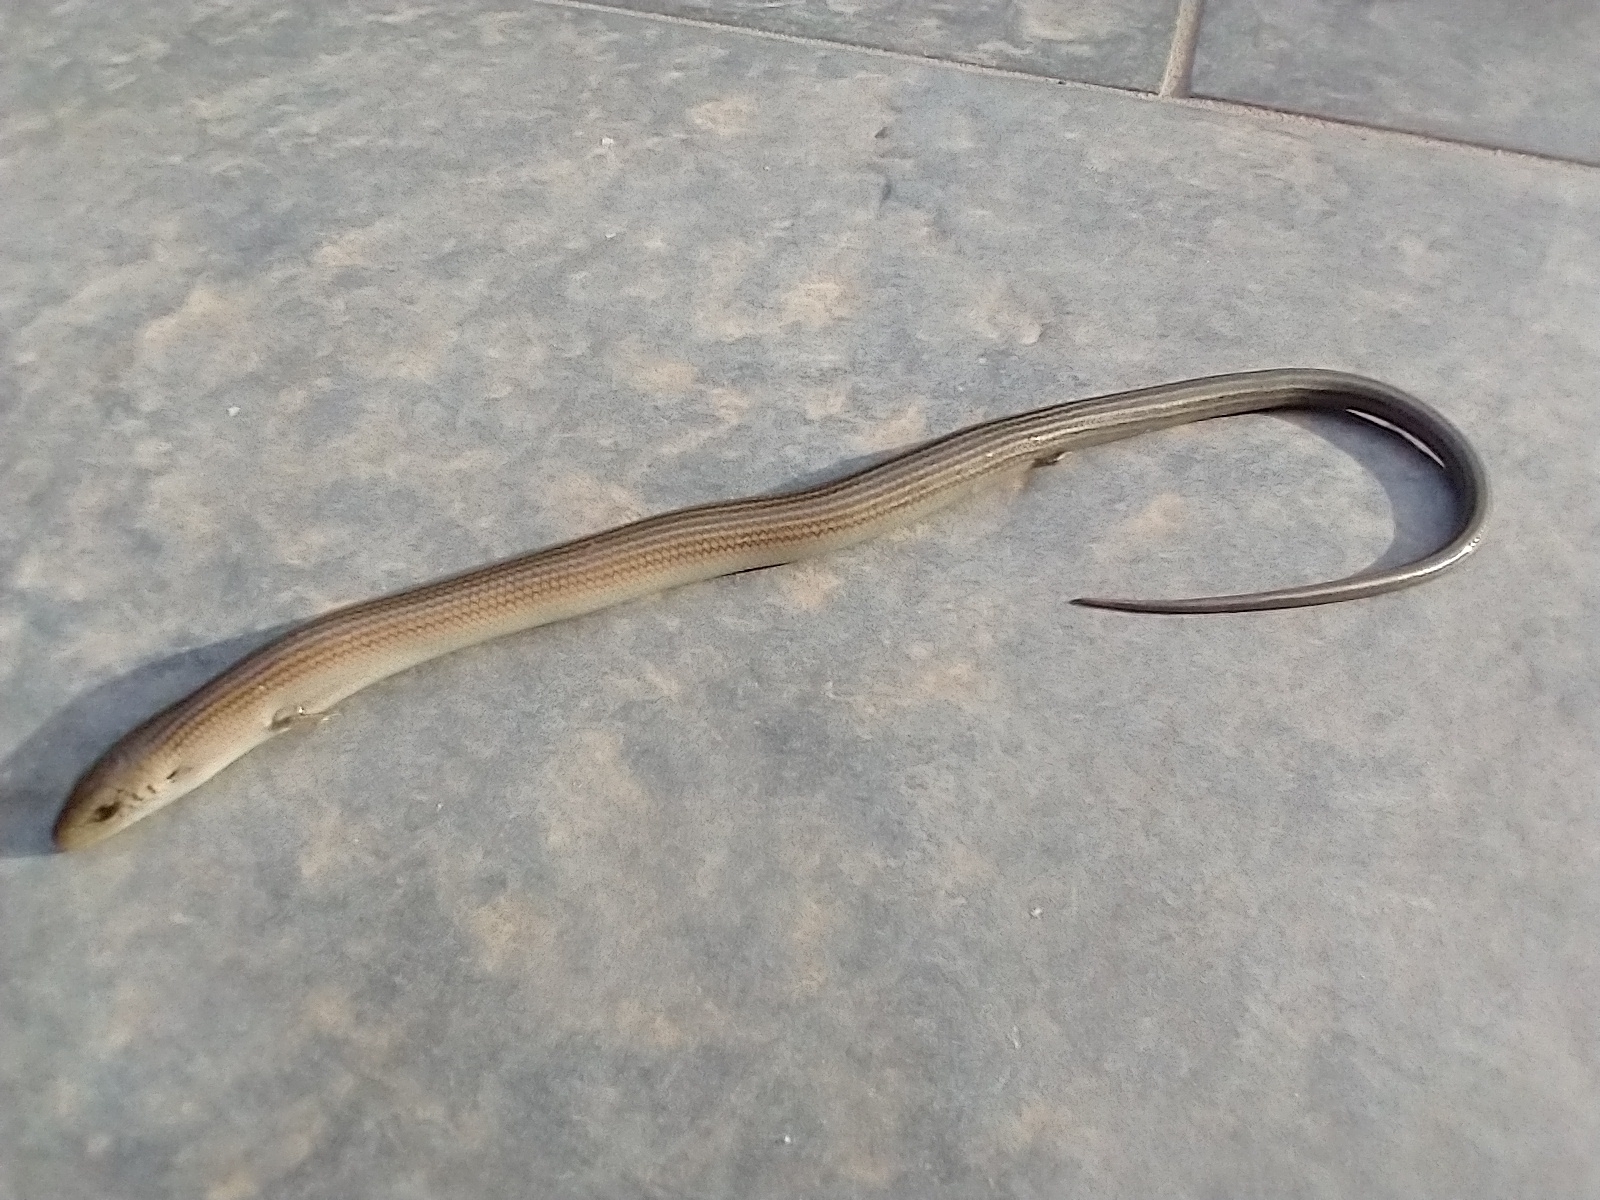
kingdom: Animalia
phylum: Chordata
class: Squamata
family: Scincidae
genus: Chalcides
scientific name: Chalcides striatus
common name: Western (or iberian) three-toed skink
